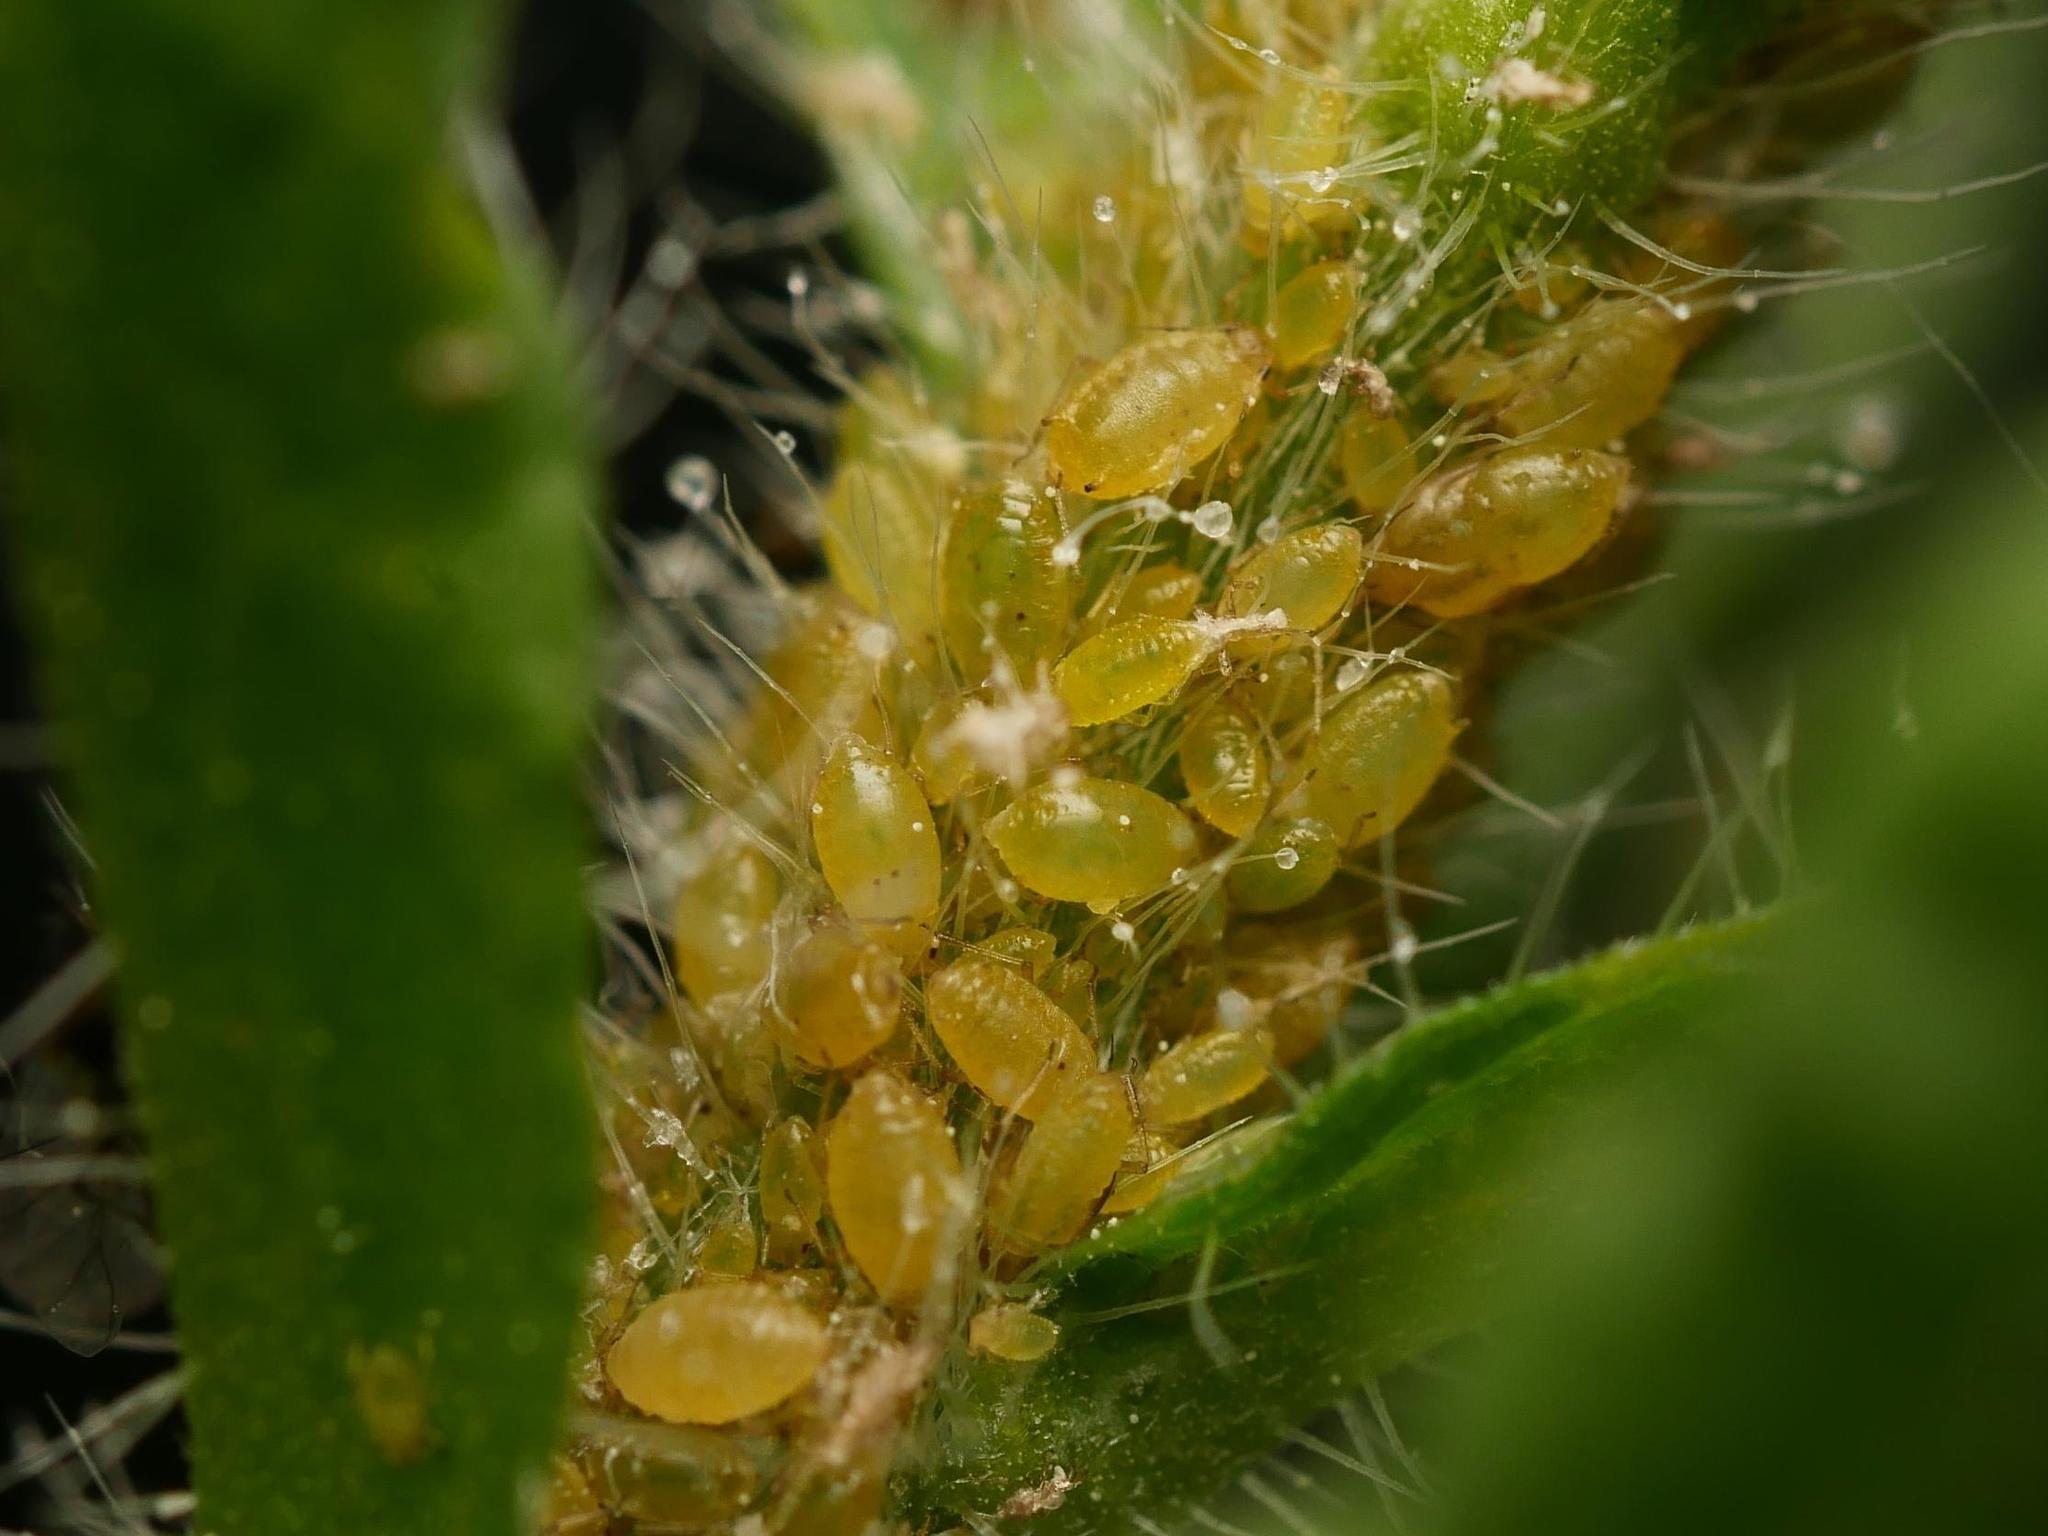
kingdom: Animalia
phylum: Arthropoda
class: Insecta
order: Hemiptera
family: Aphididae
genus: Hyalopterus
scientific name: Hyalopterus pruni
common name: Mealy plum aphid
